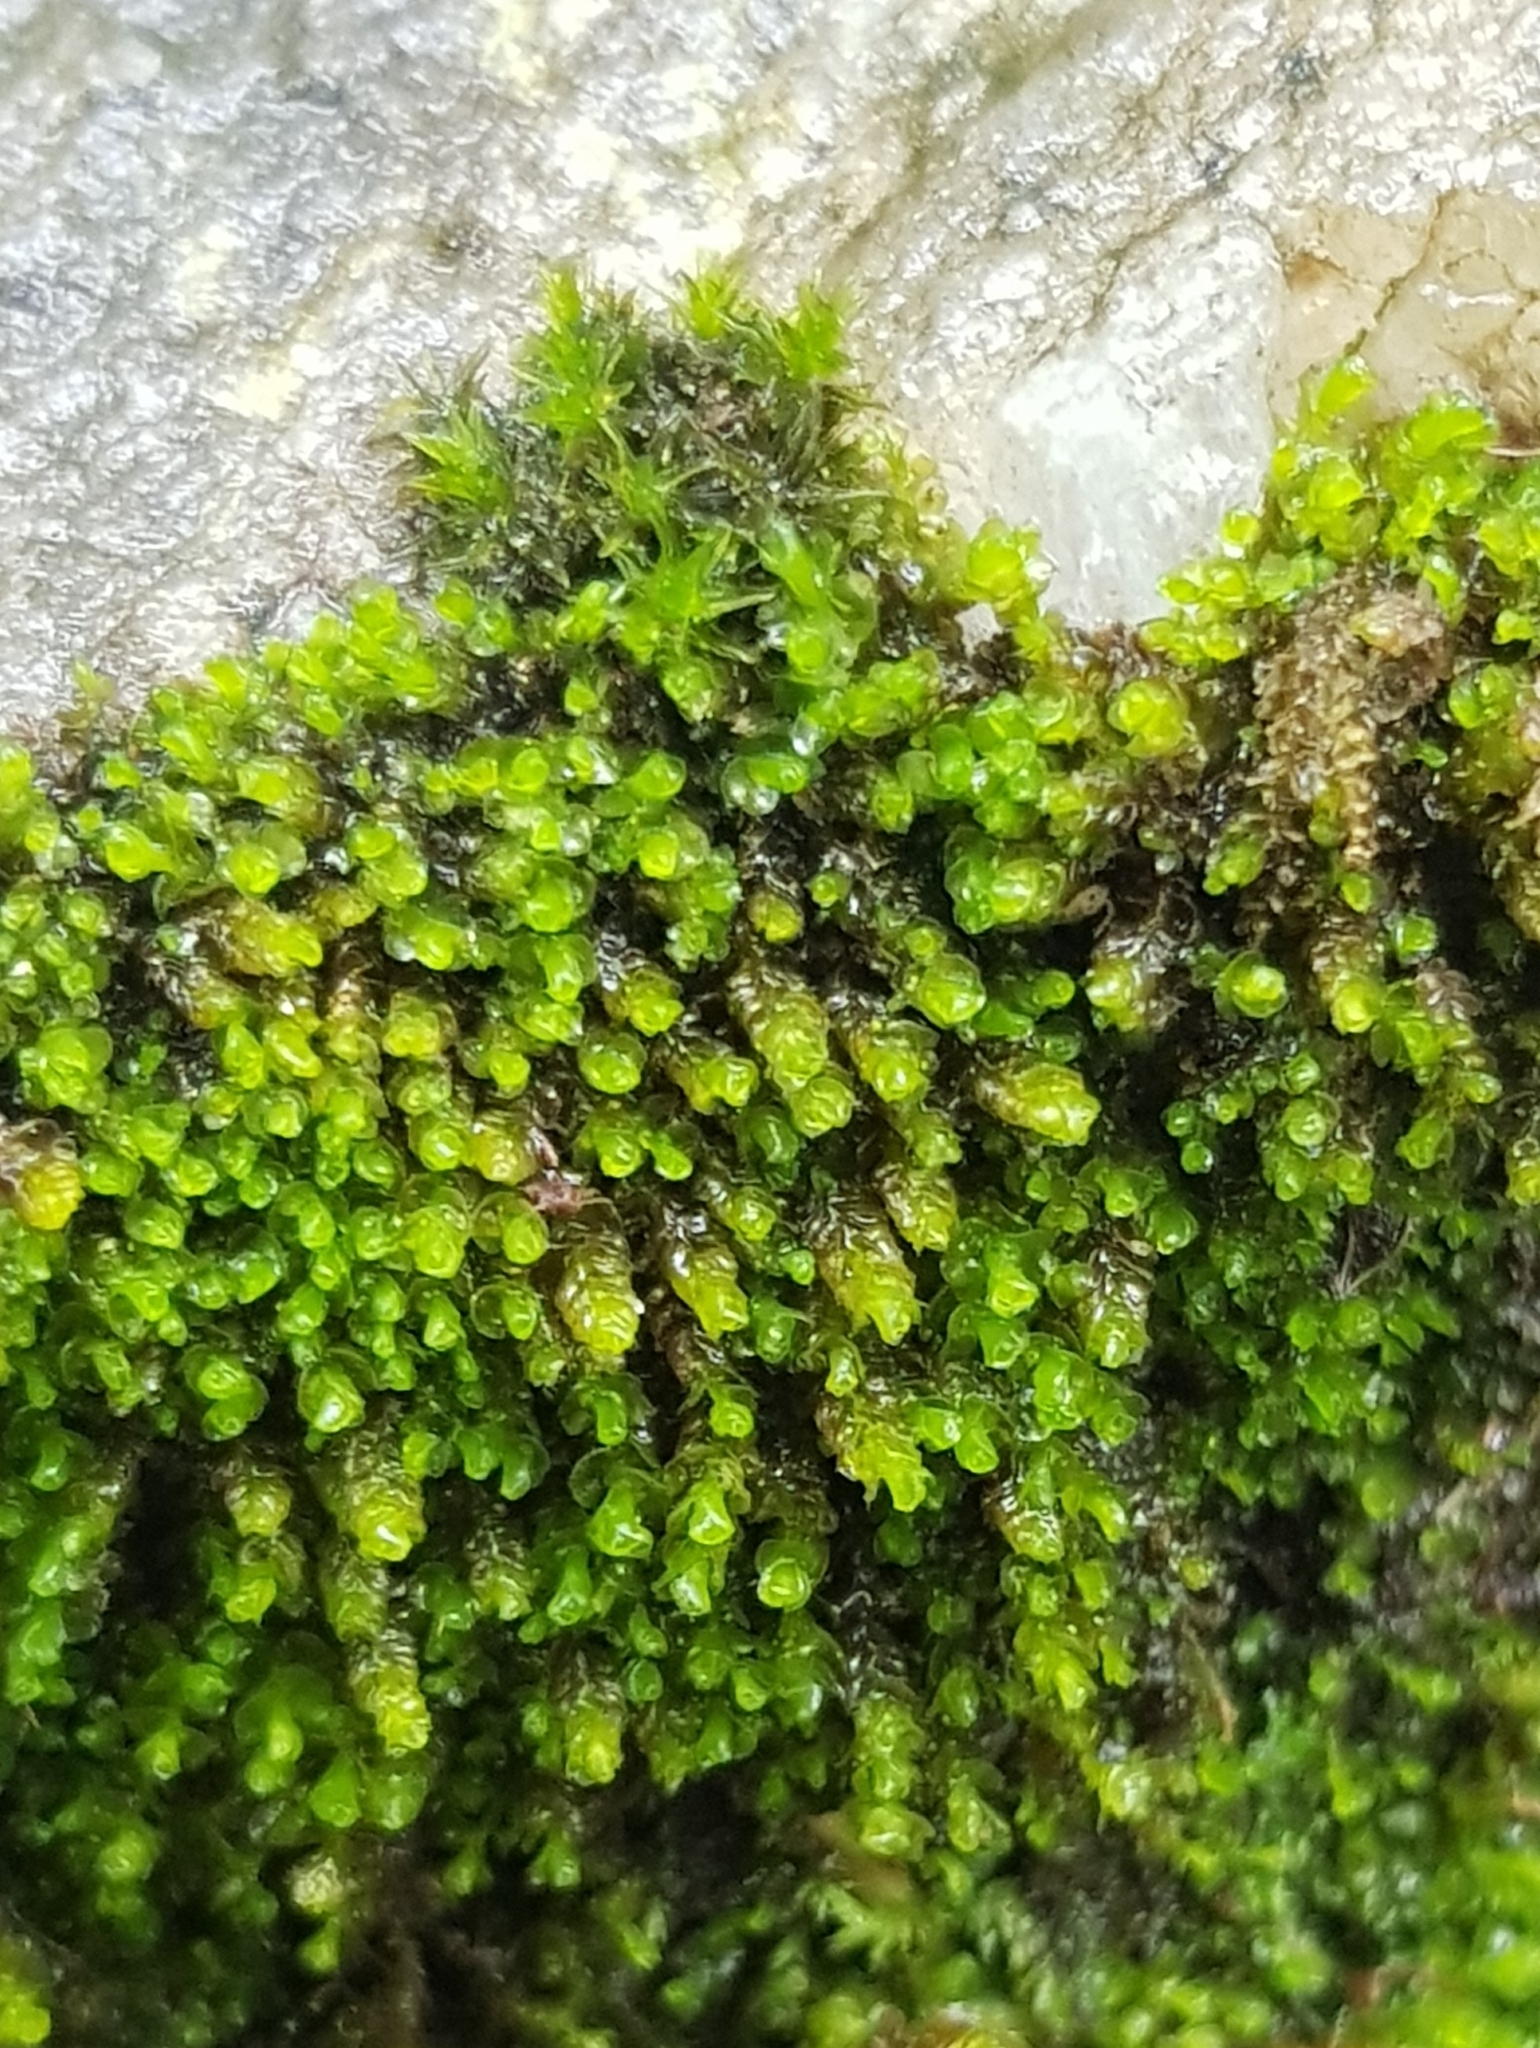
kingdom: Plantae
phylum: Marchantiophyta
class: Jungermanniopsida
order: Jungermanniales
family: Gymnomitriaceae
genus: Marsupella
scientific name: Marsupella emarginata
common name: Notched rustwort
